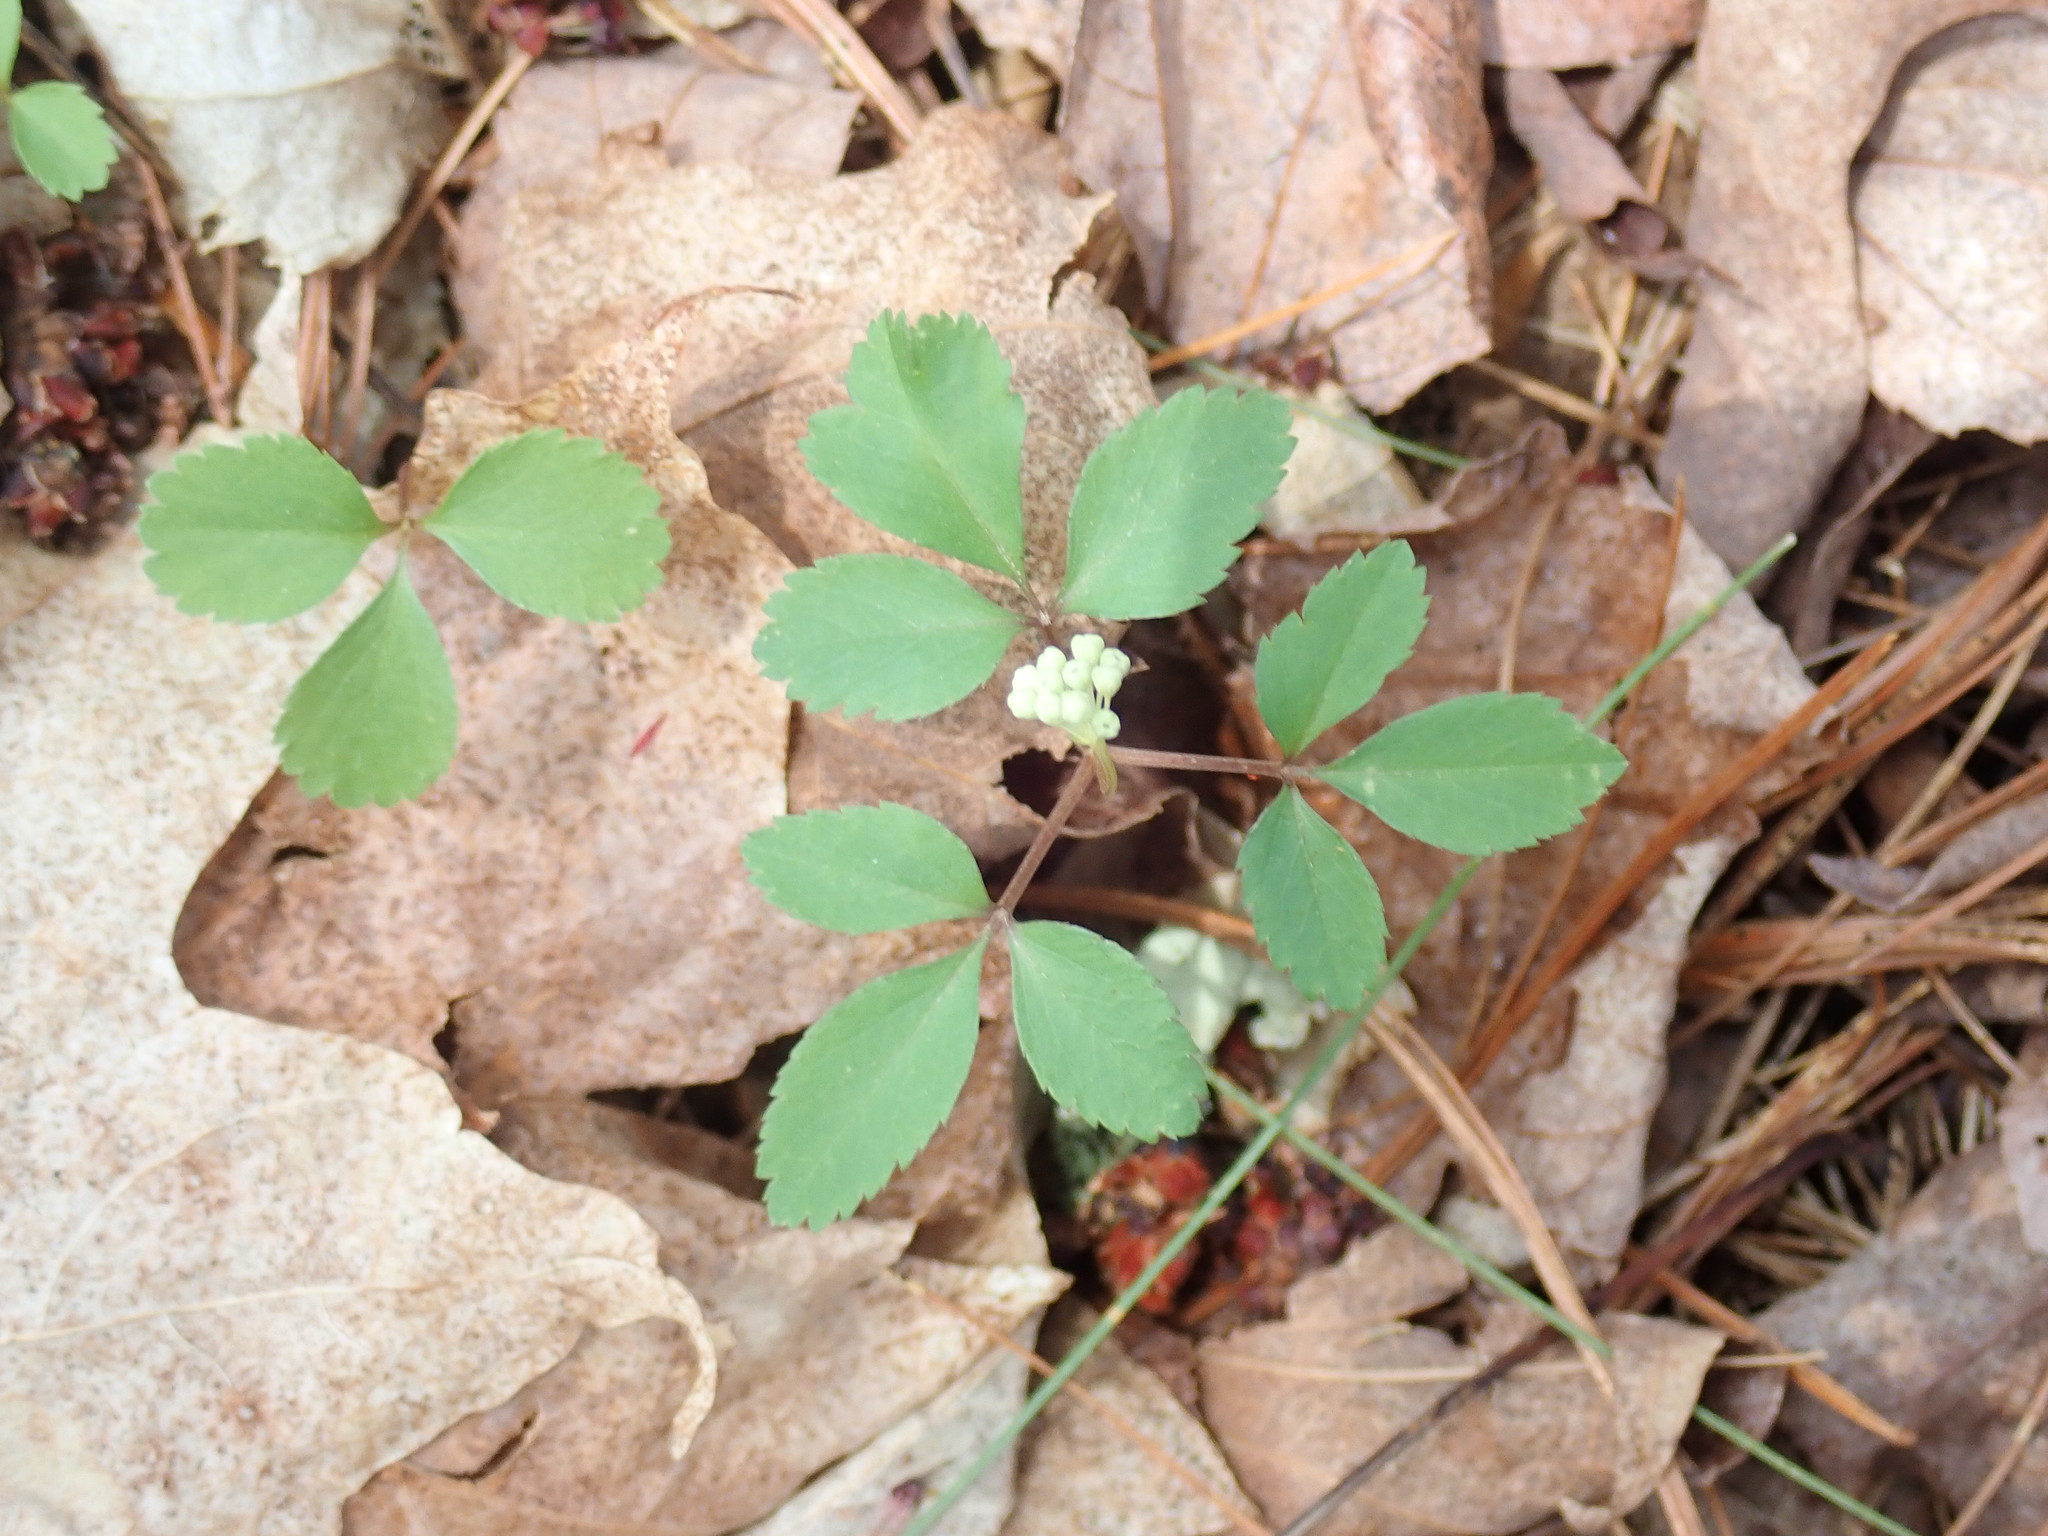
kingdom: Plantae
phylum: Tracheophyta
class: Magnoliopsida
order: Apiales
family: Araliaceae
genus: Panax
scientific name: Panax trifolius
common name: Dwarf ginseng
